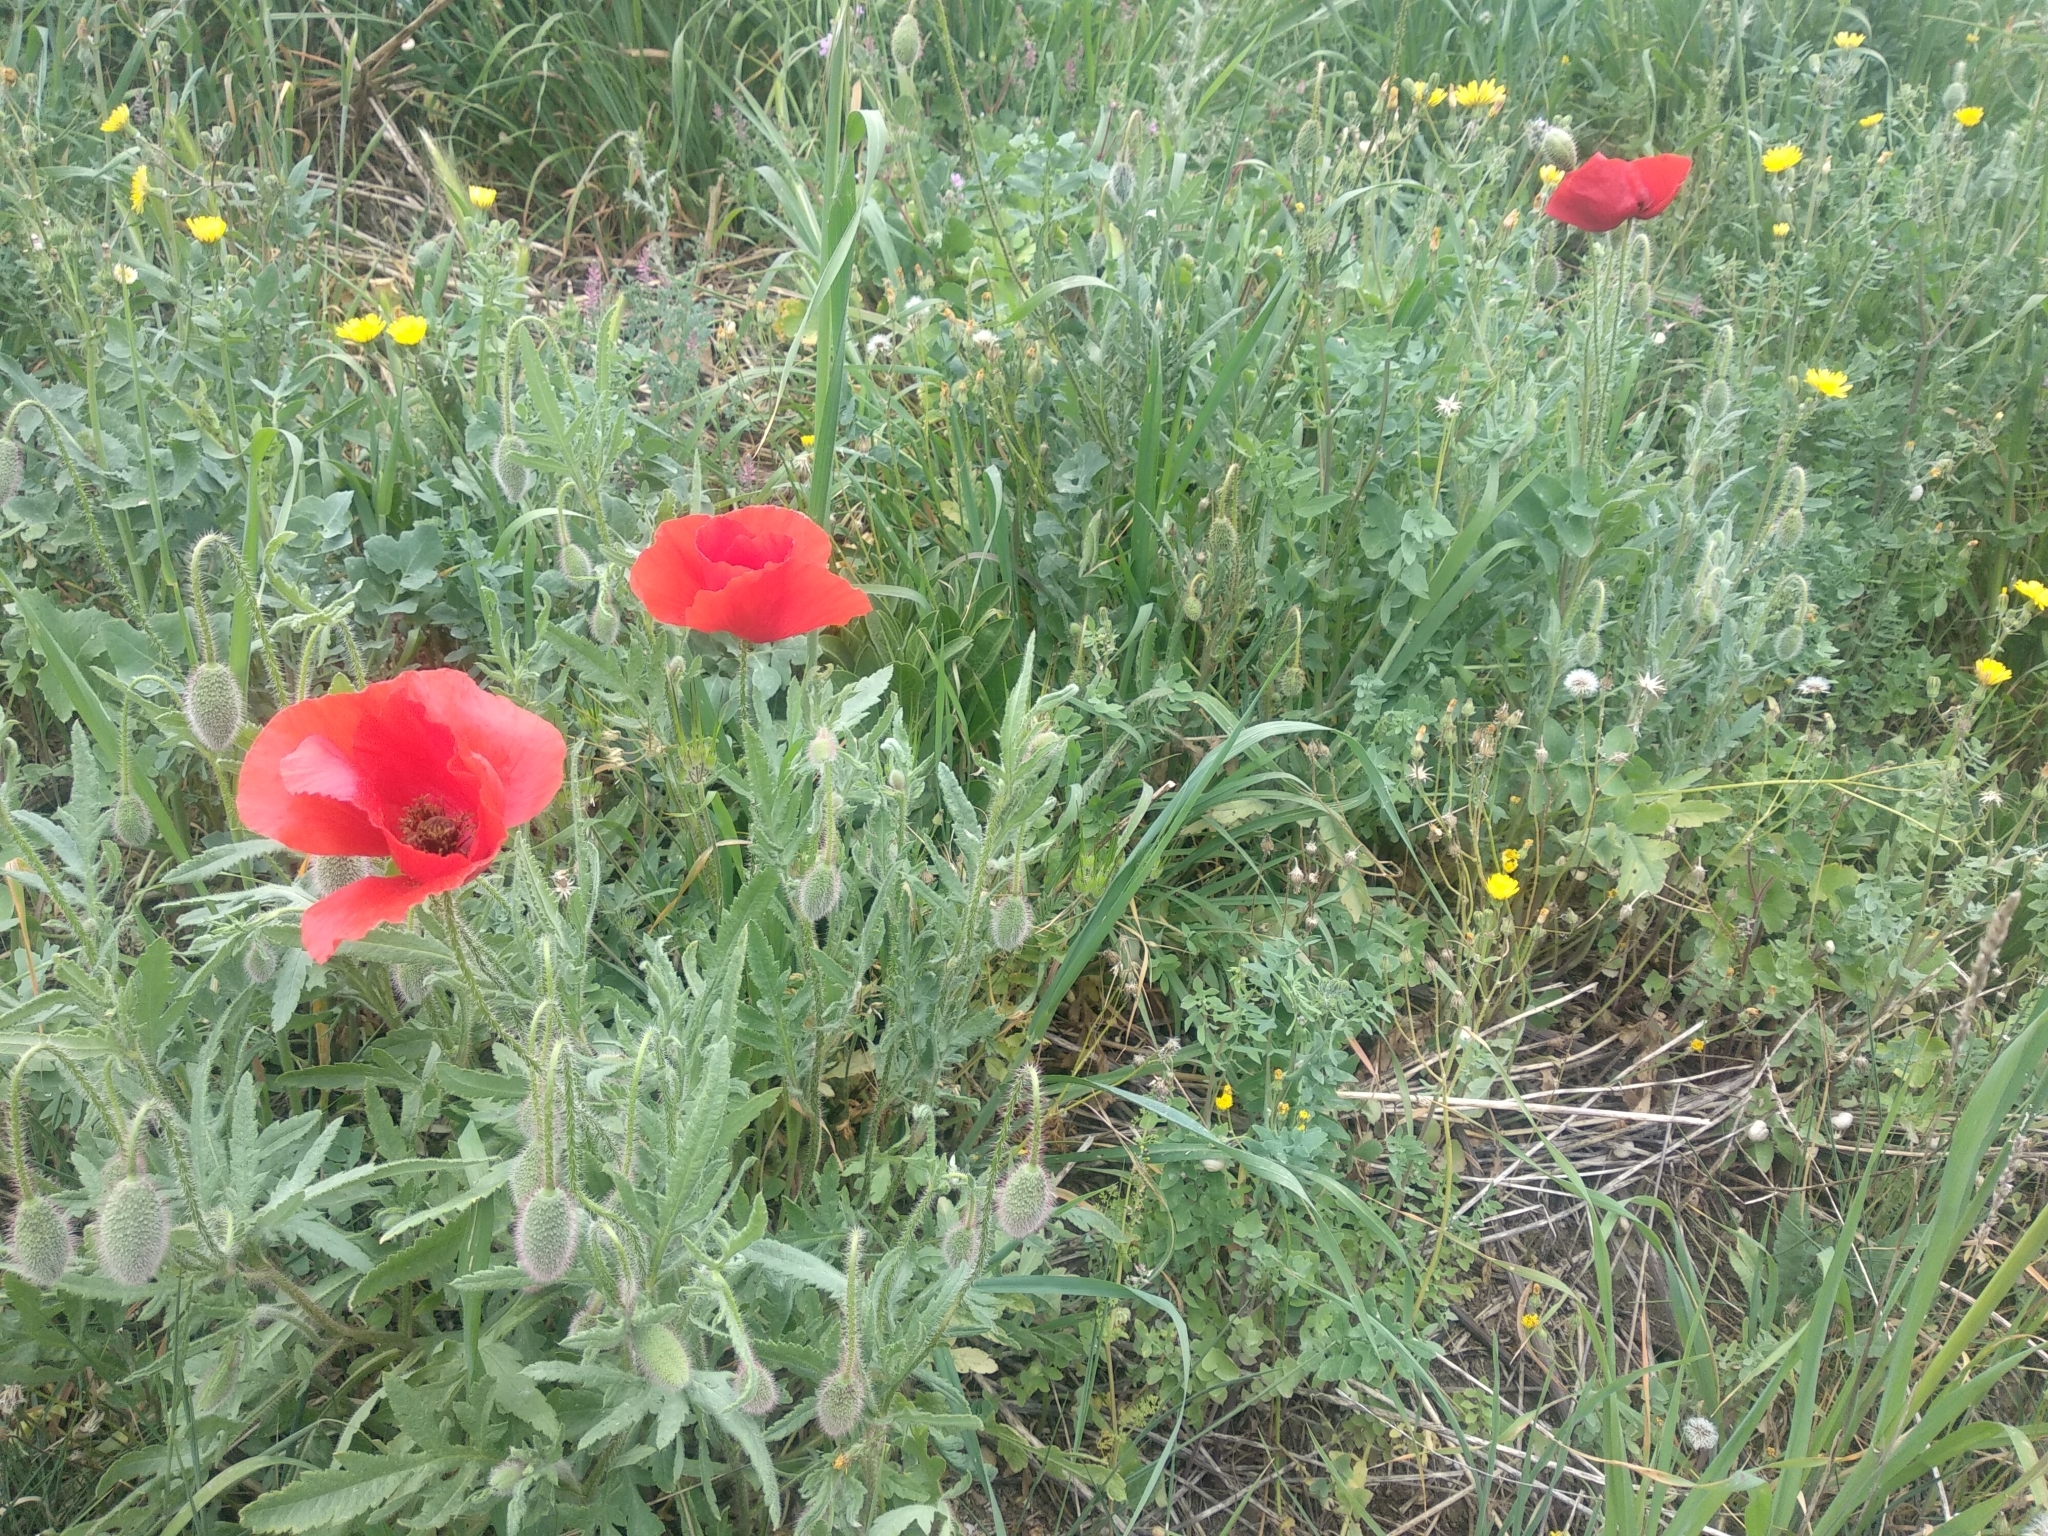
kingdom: Plantae
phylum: Tracheophyta
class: Magnoliopsida
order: Ranunculales
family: Papaveraceae
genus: Papaver
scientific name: Papaver rhoeas
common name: Corn poppy
